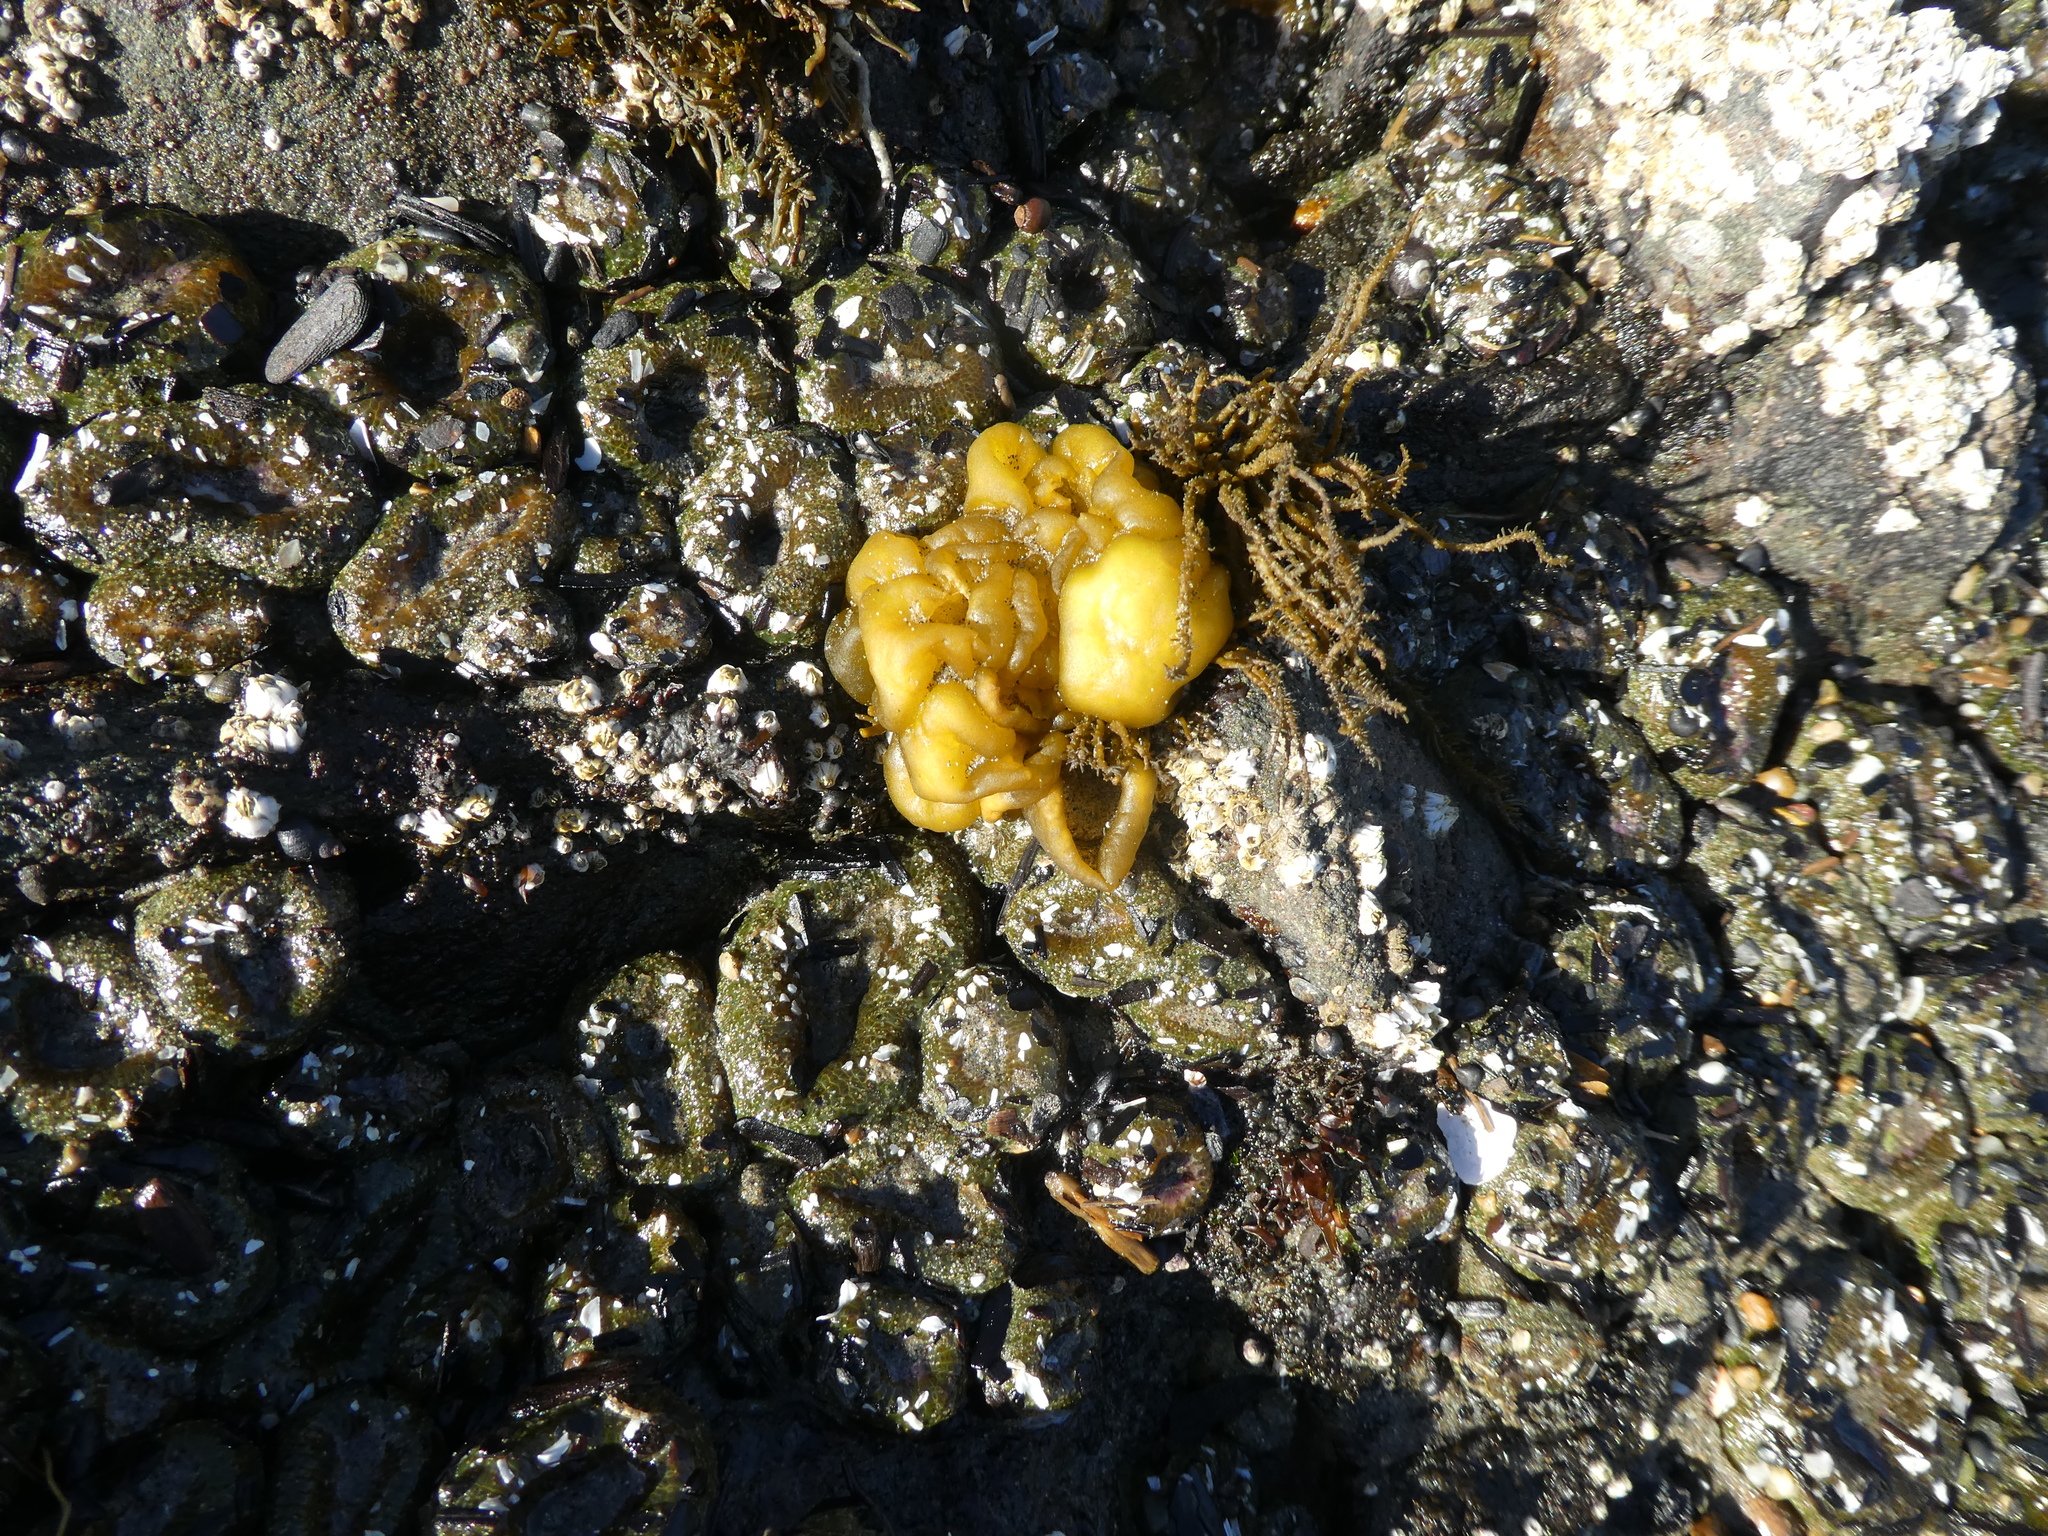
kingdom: Chromista
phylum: Ochrophyta
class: Phaeophyceae
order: Ectocarpales
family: Chordariaceae
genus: Leathesia
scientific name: Leathesia marina
